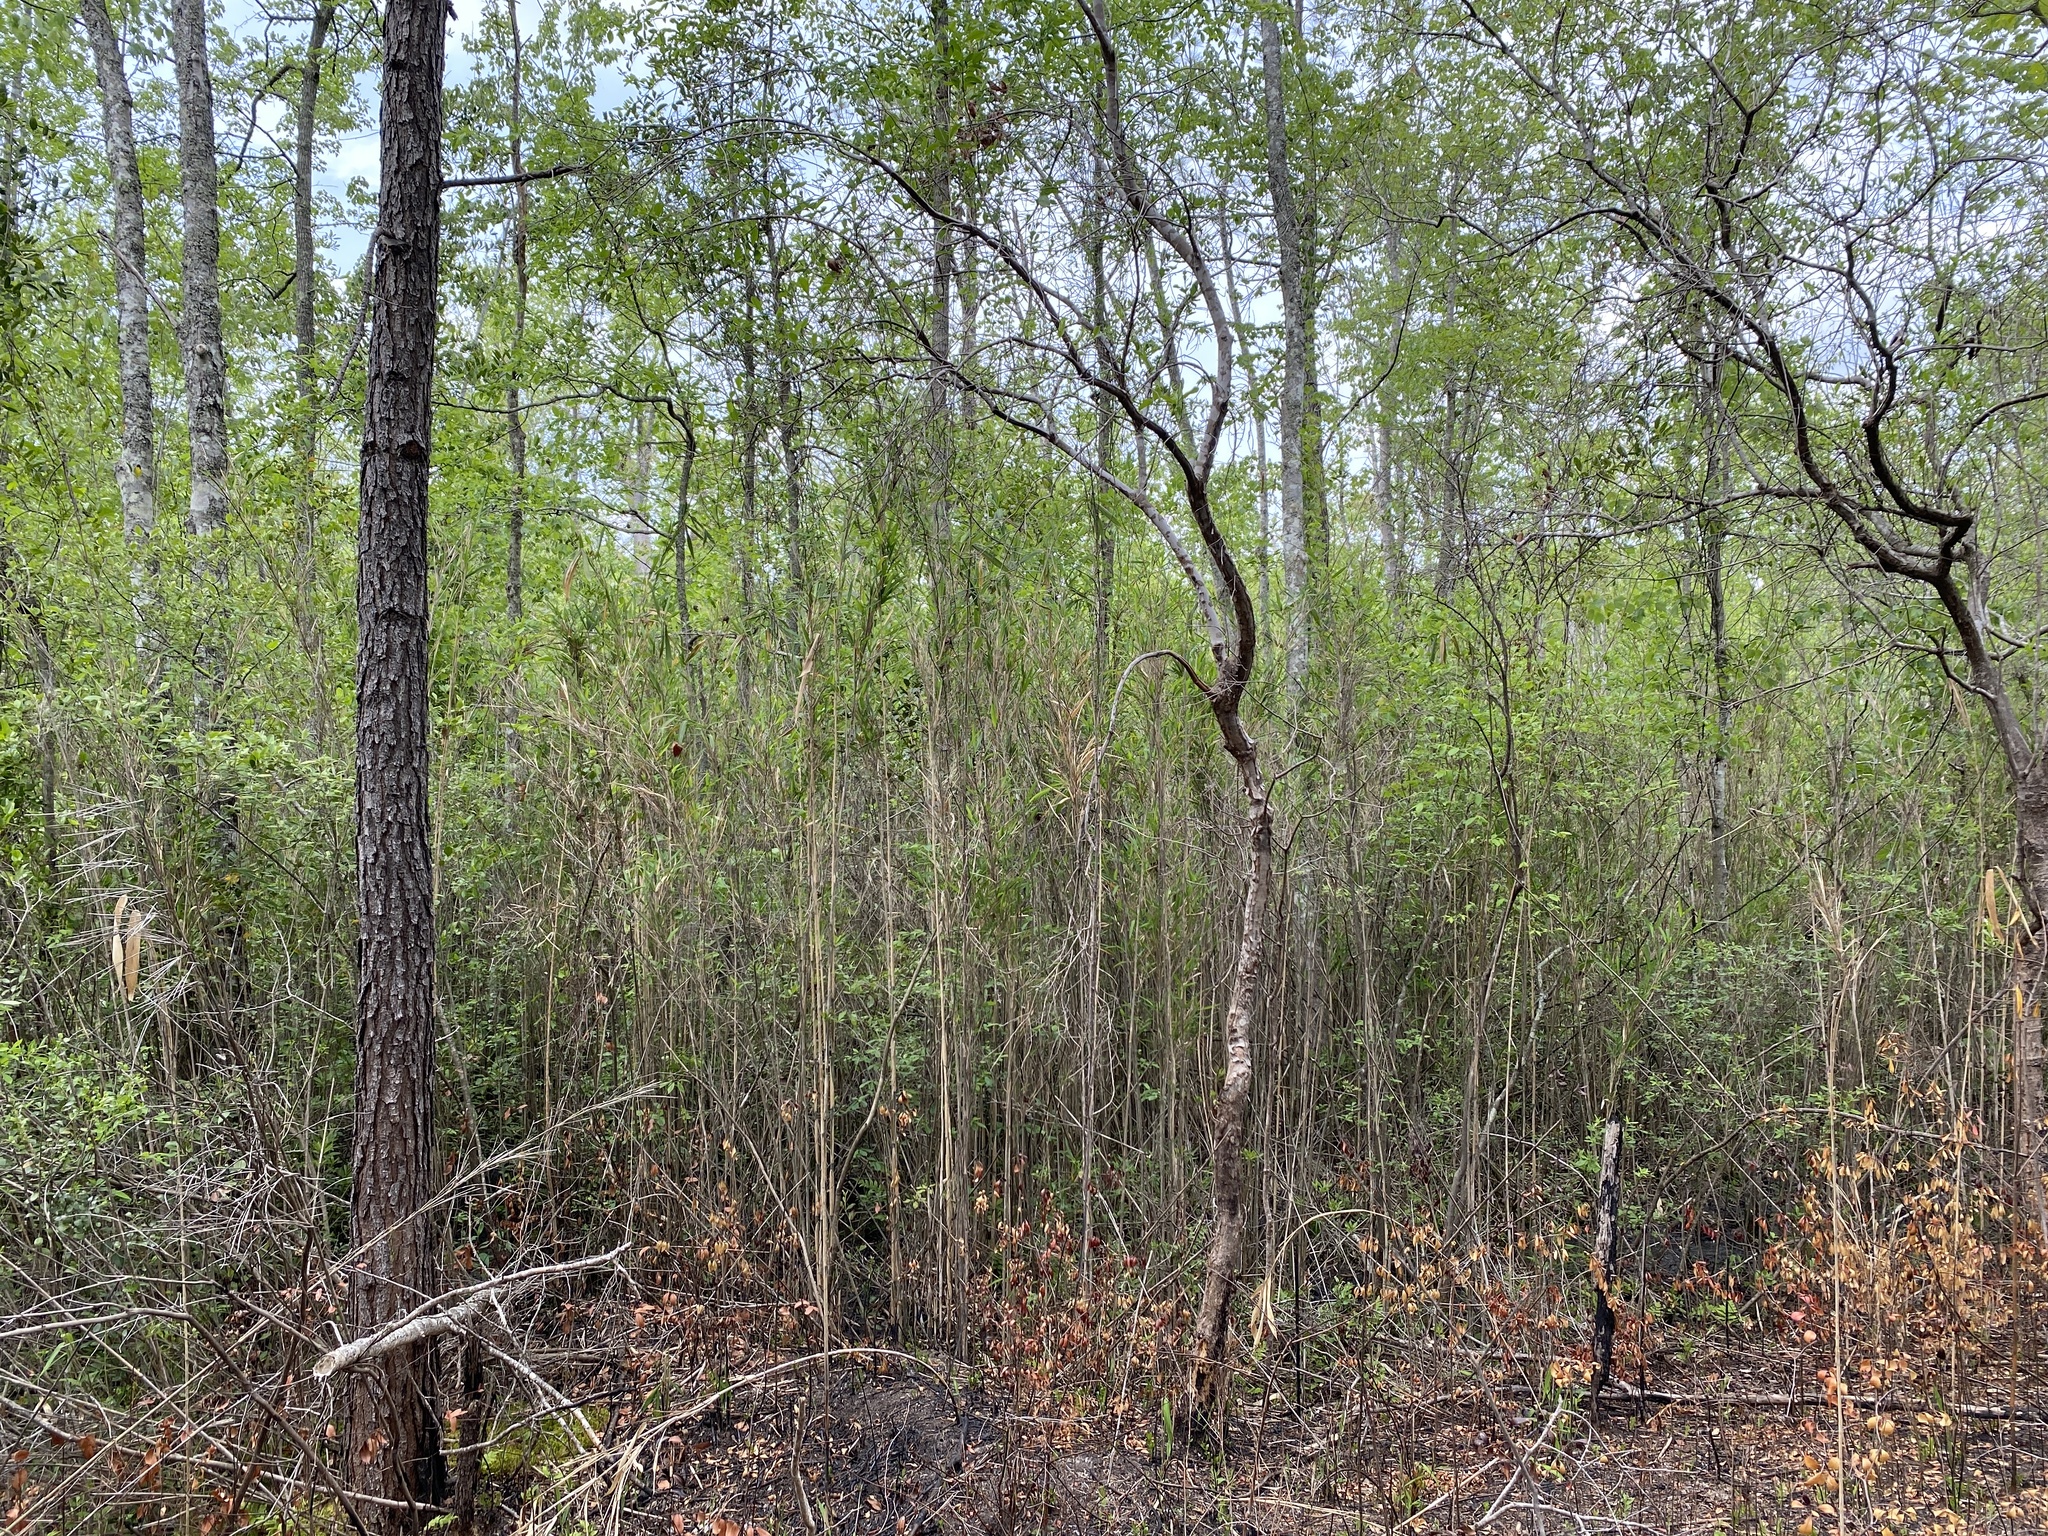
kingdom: Plantae
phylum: Tracheophyta
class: Liliopsida
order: Poales
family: Poaceae
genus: Arundinaria
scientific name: Arundinaria tecta
